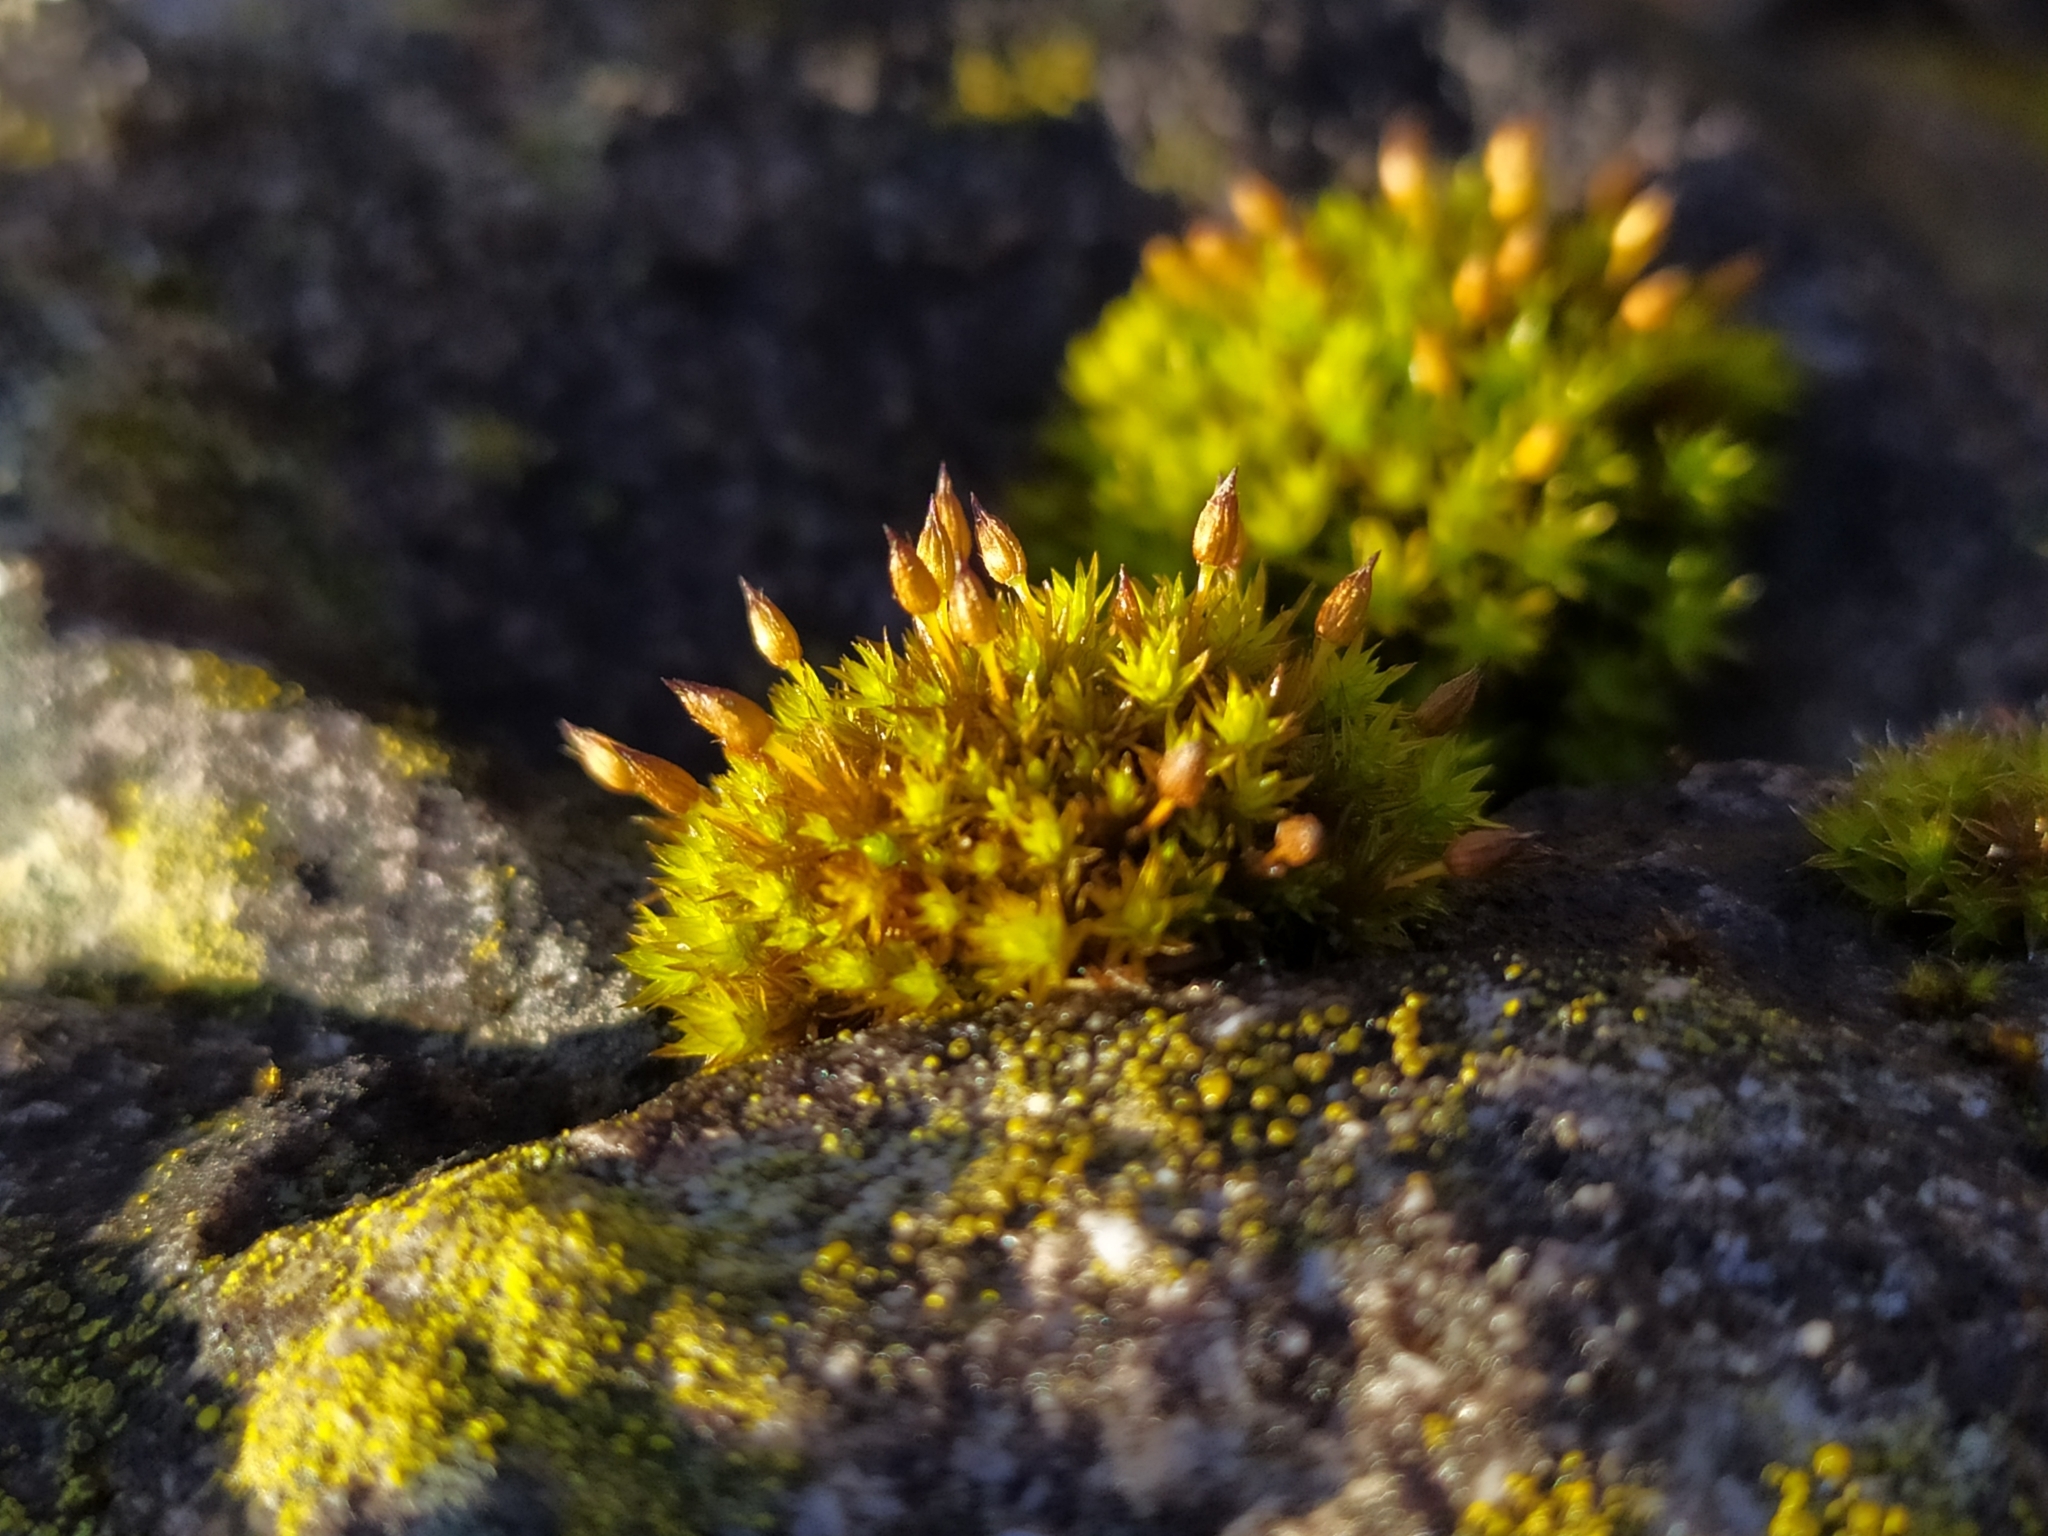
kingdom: Plantae
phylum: Bryophyta
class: Bryopsida
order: Orthotrichales
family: Orthotrichaceae
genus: Orthotrichum
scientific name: Orthotrichum anomalum
